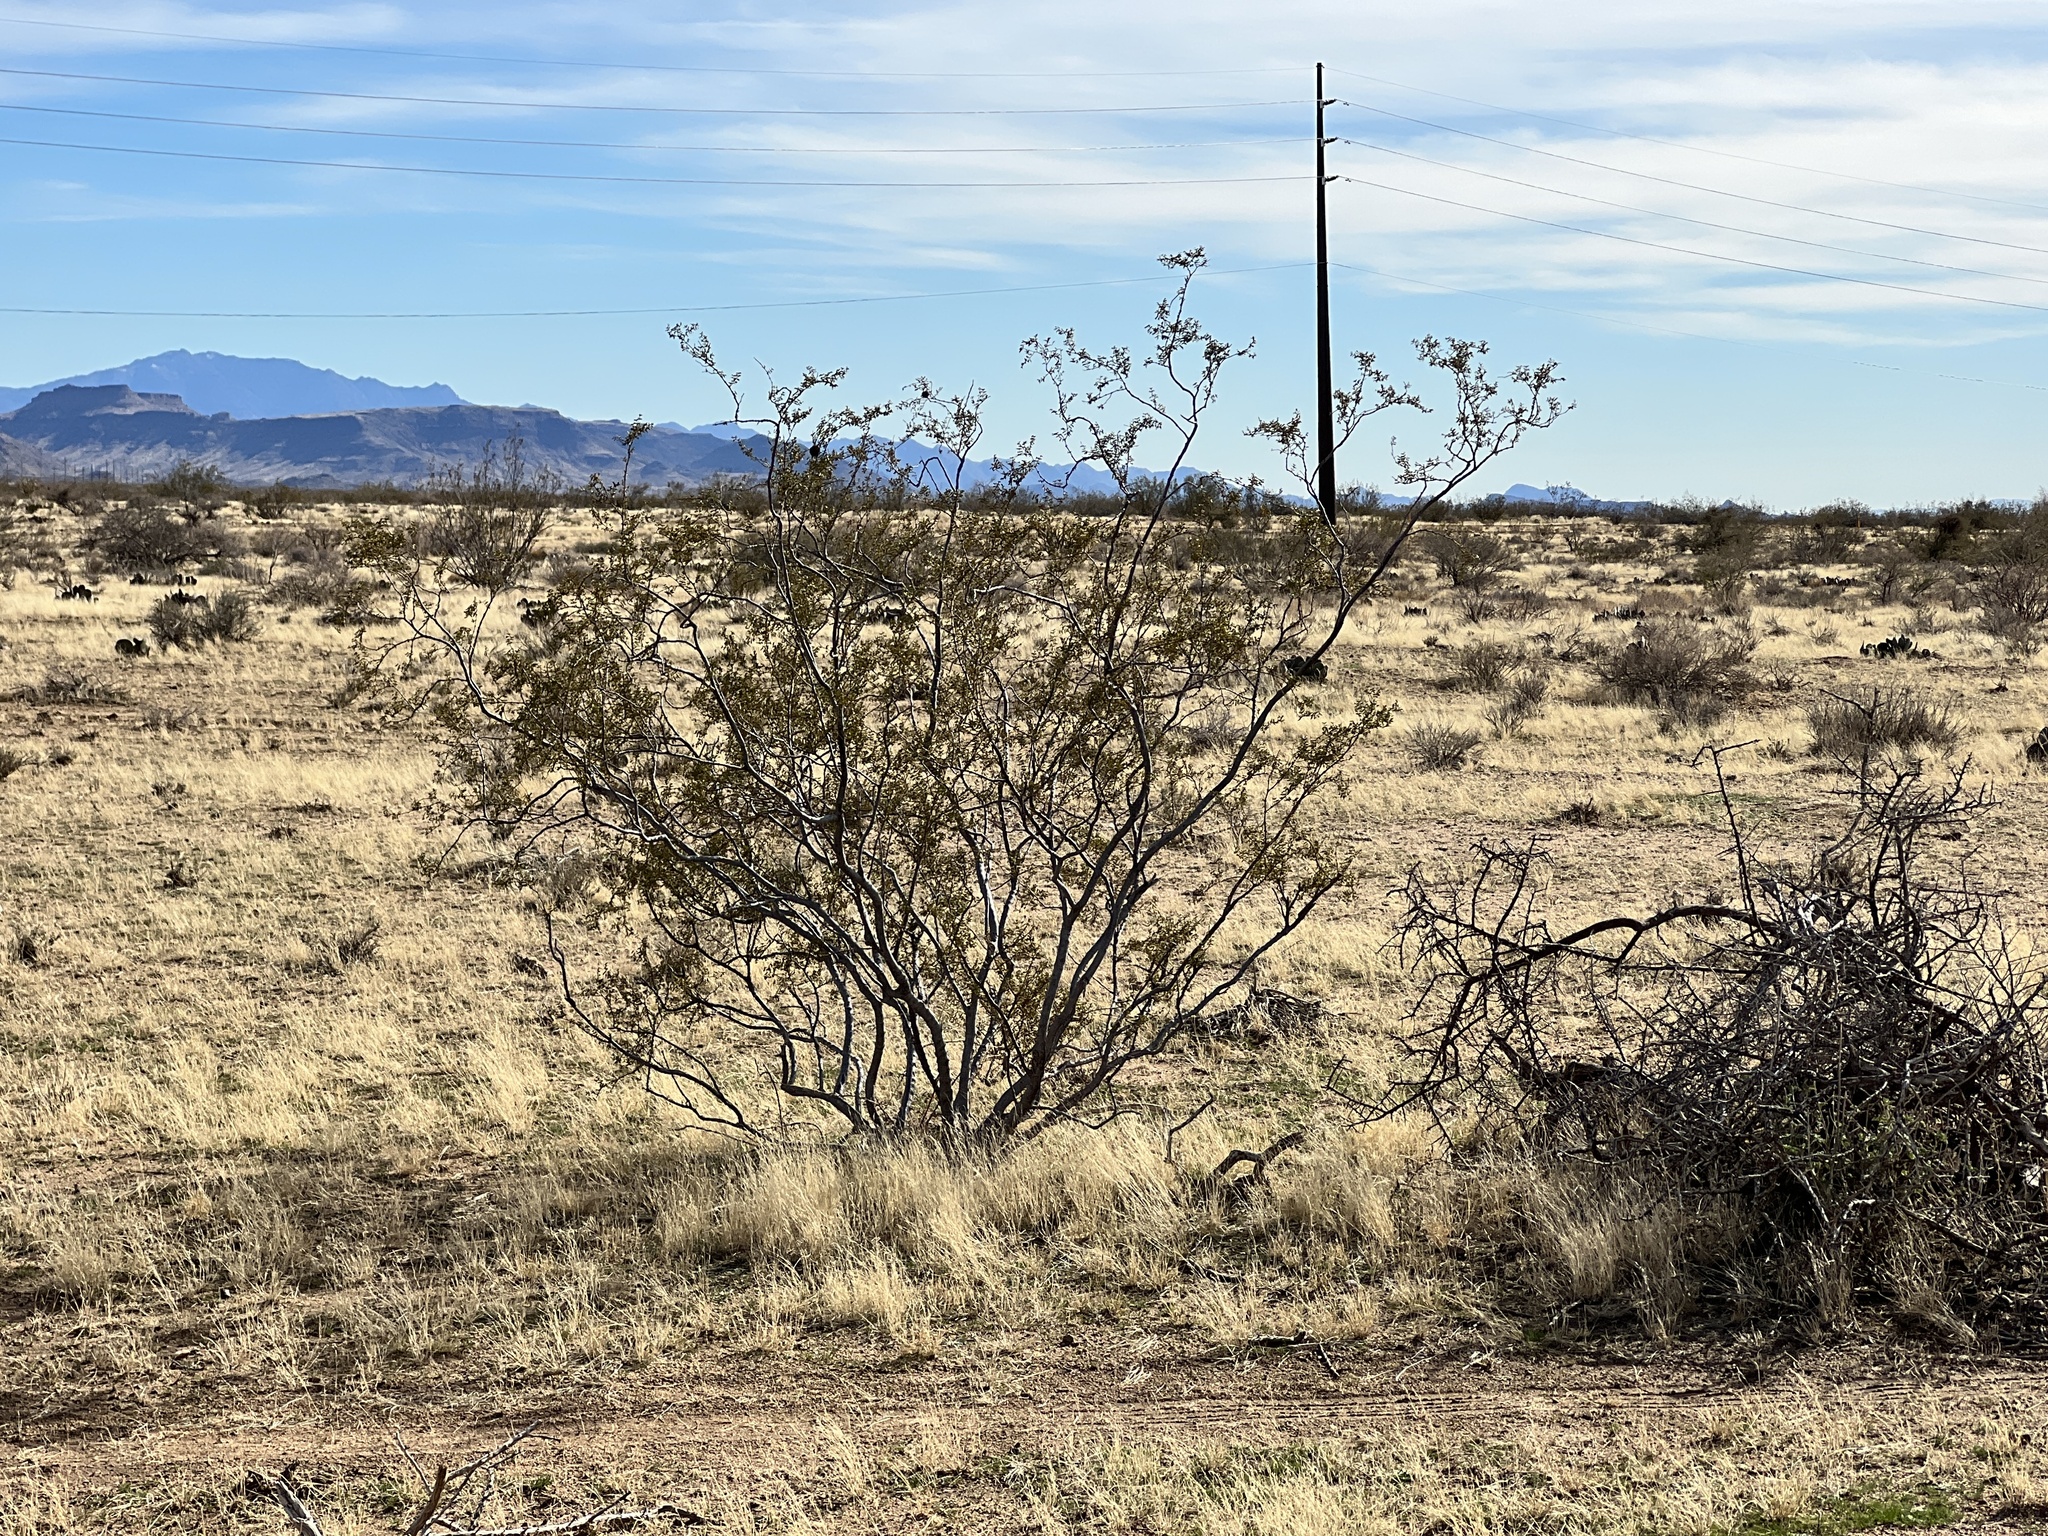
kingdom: Plantae
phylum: Tracheophyta
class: Magnoliopsida
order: Zygophyllales
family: Zygophyllaceae
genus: Larrea
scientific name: Larrea tridentata
